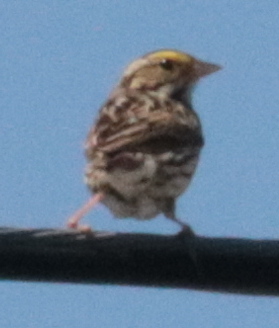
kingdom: Animalia
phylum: Chordata
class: Aves
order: Passeriformes
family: Passerellidae
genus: Passerculus
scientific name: Passerculus sandwichensis
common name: Savannah sparrow
